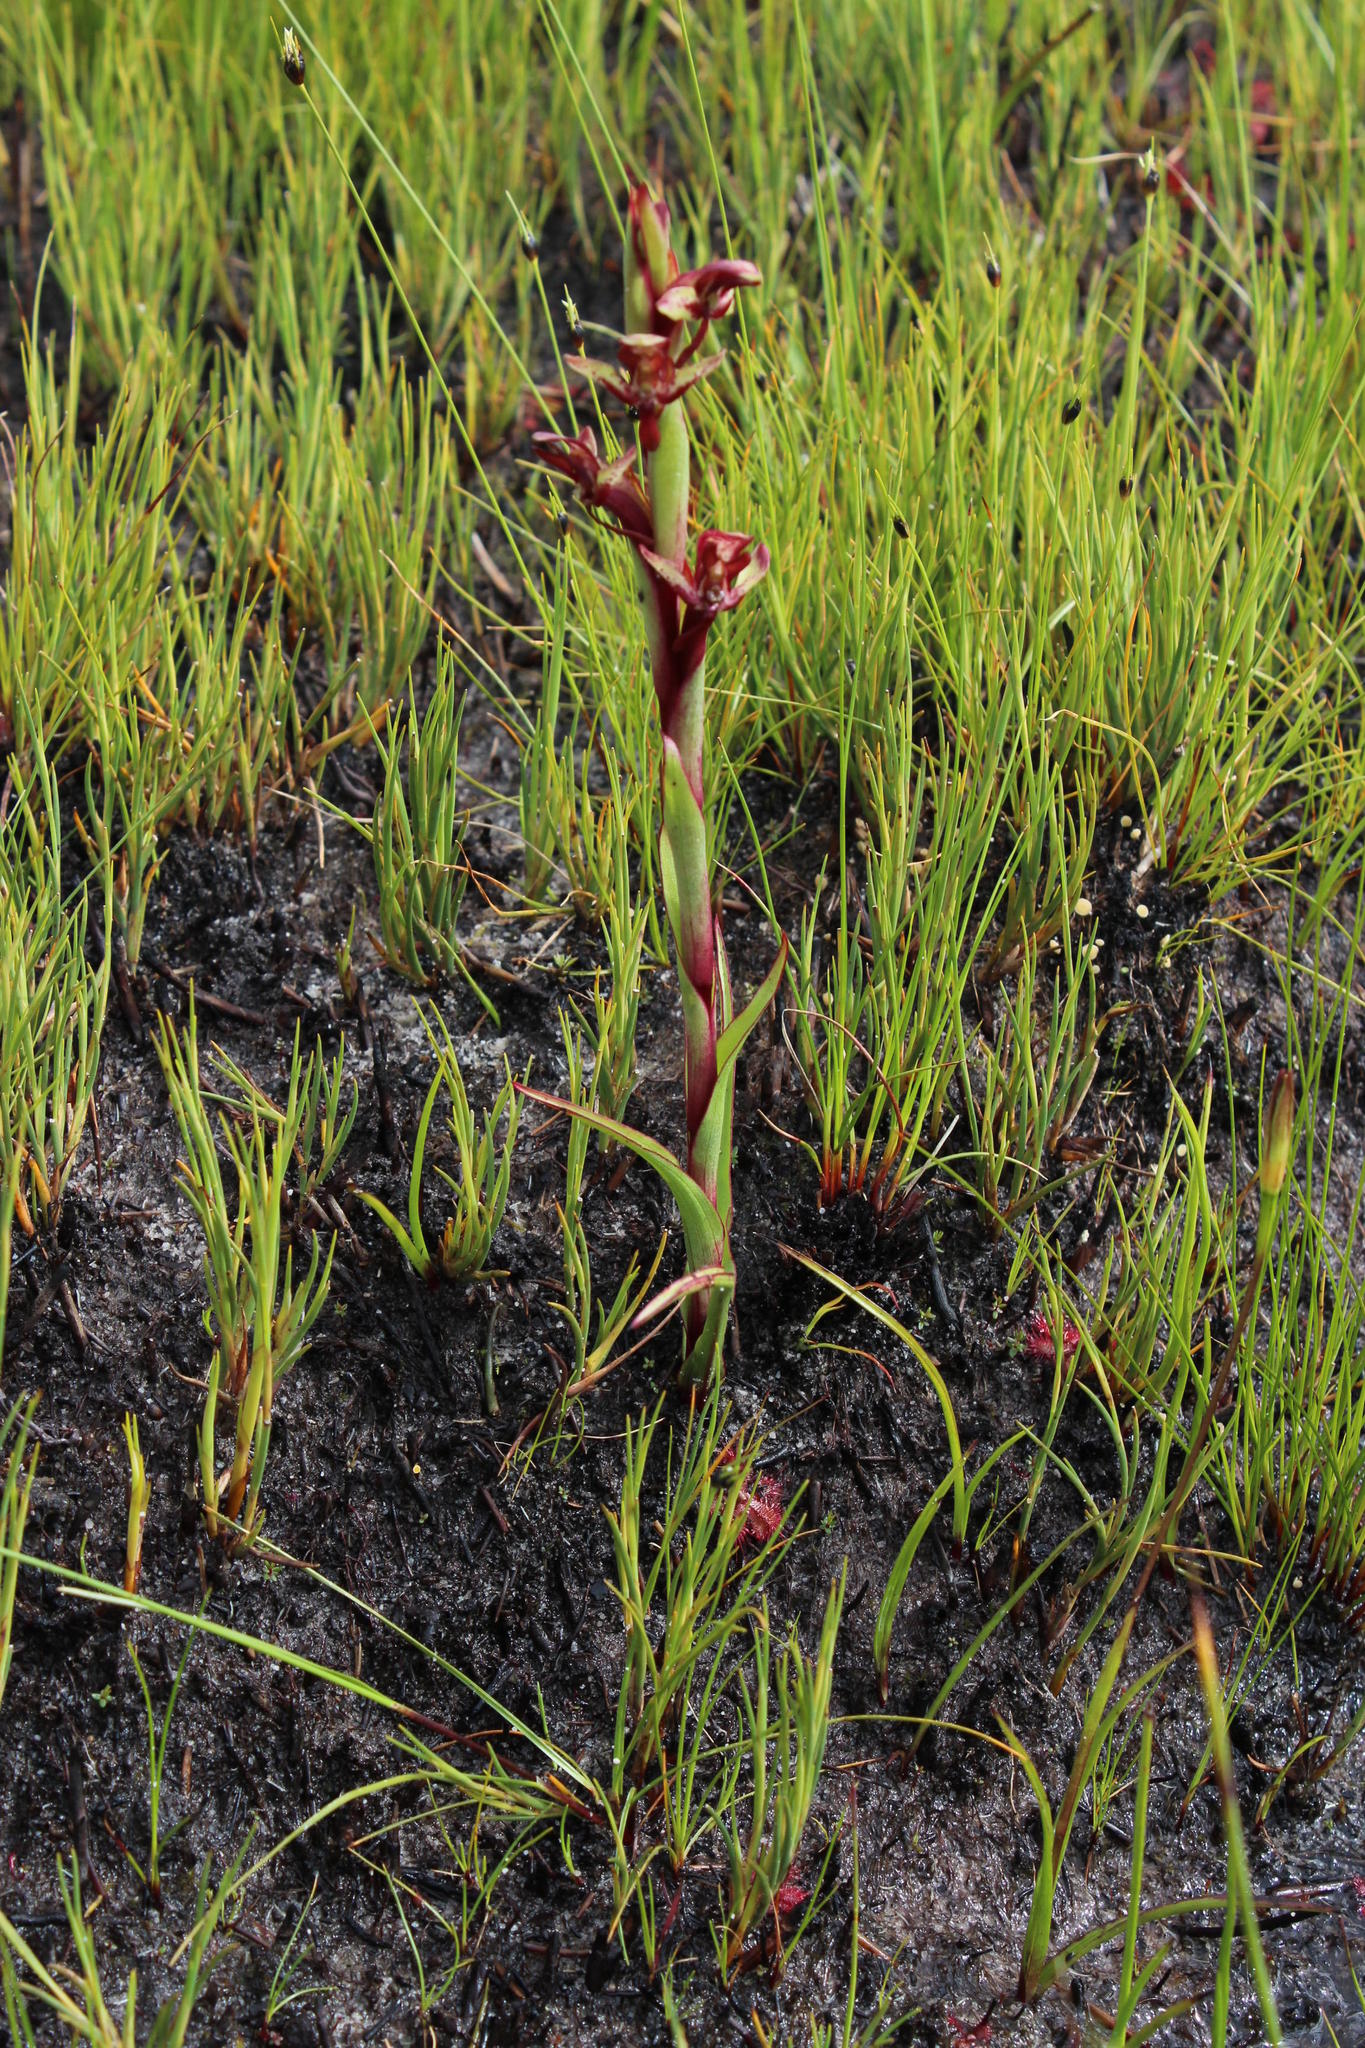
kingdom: Plantae
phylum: Tracheophyta
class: Liliopsida
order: Asparagales
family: Orchidaceae
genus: Disa
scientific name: Disa ophrydea
